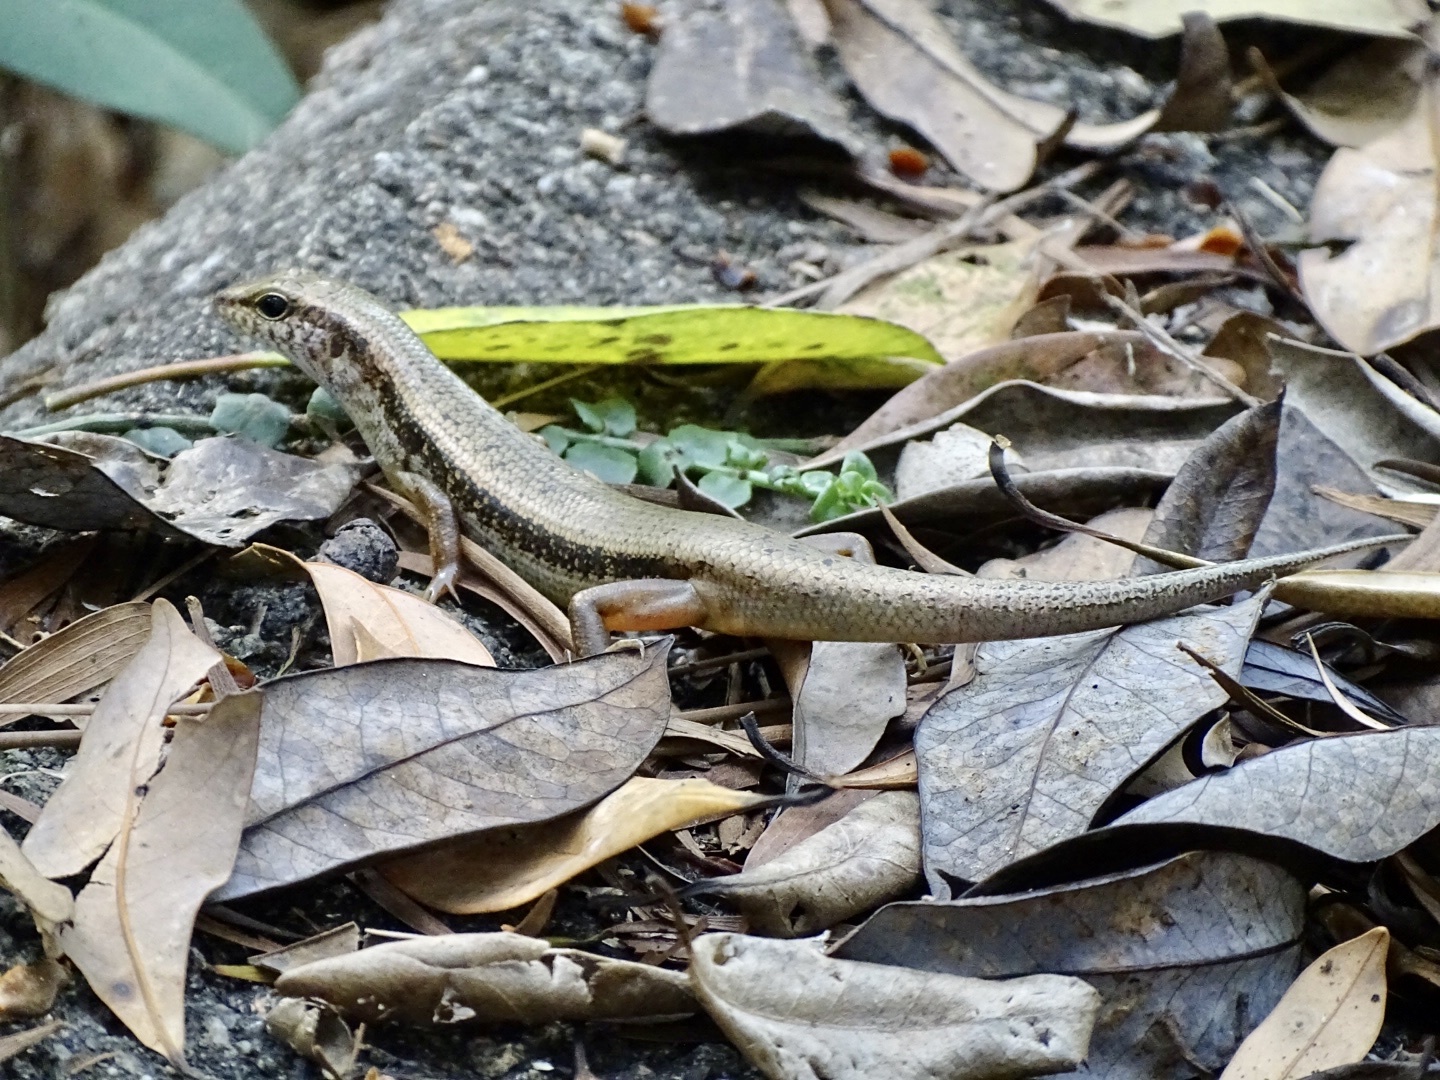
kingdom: Animalia
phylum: Chordata
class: Squamata
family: Scincidae
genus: Sphenomorphus
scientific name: Sphenomorphus incognitus
